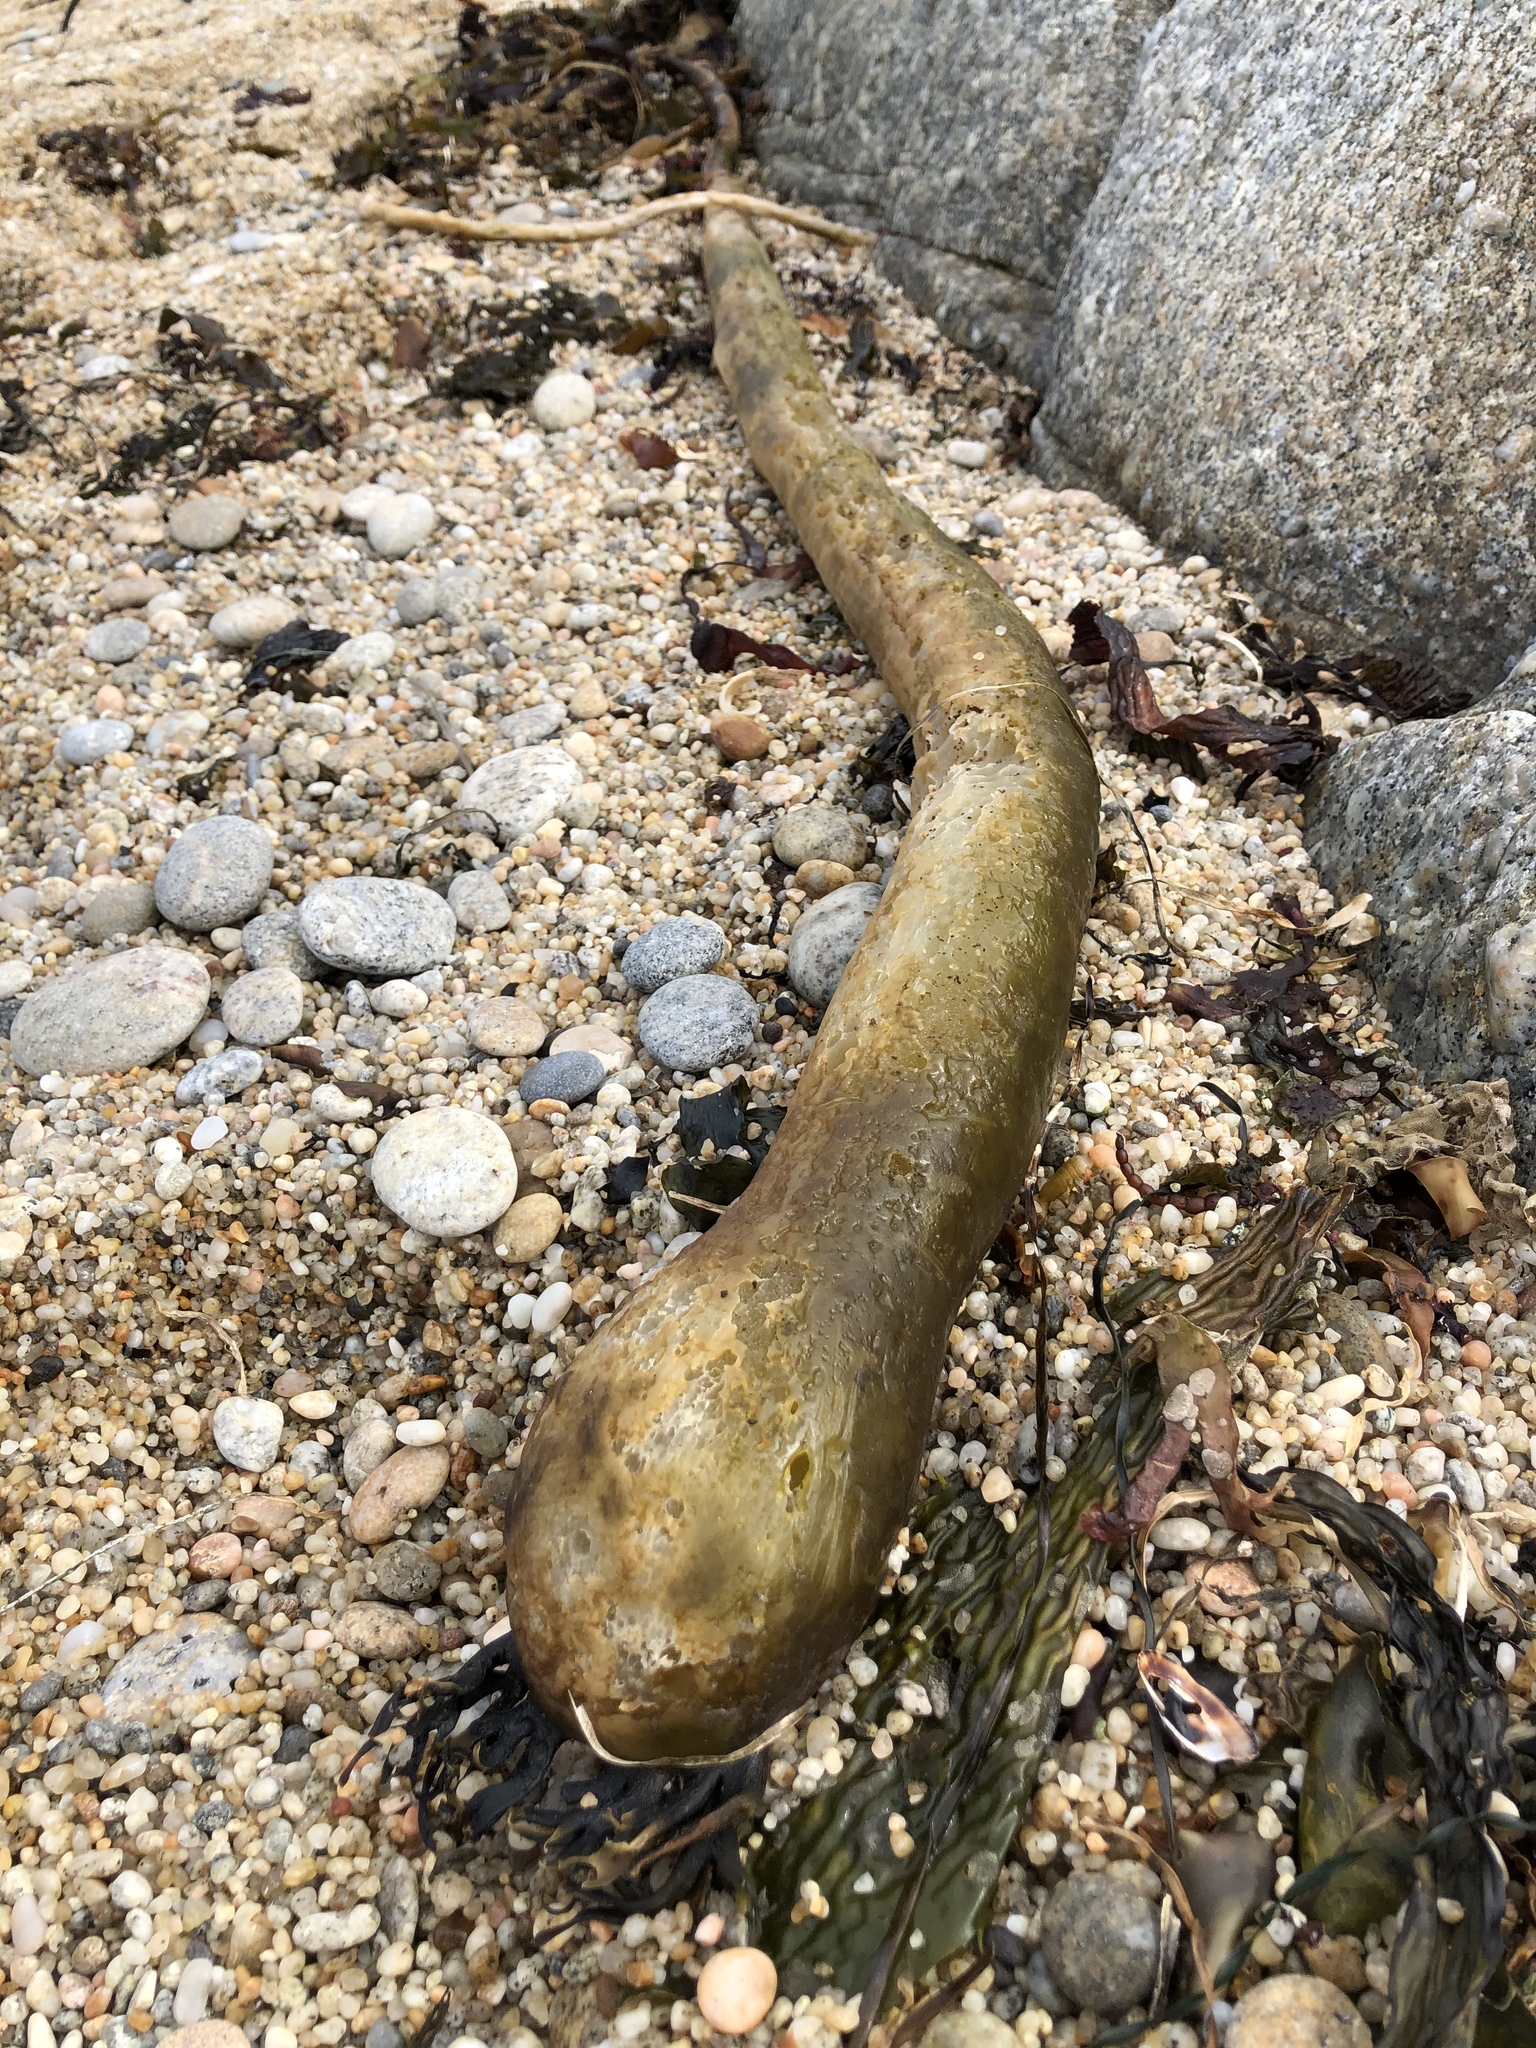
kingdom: Chromista
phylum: Ochrophyta
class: Phaeophyceae
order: Laminariales
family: Laminariaceae
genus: Nereocystis
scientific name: Nereocystis luetkeana
